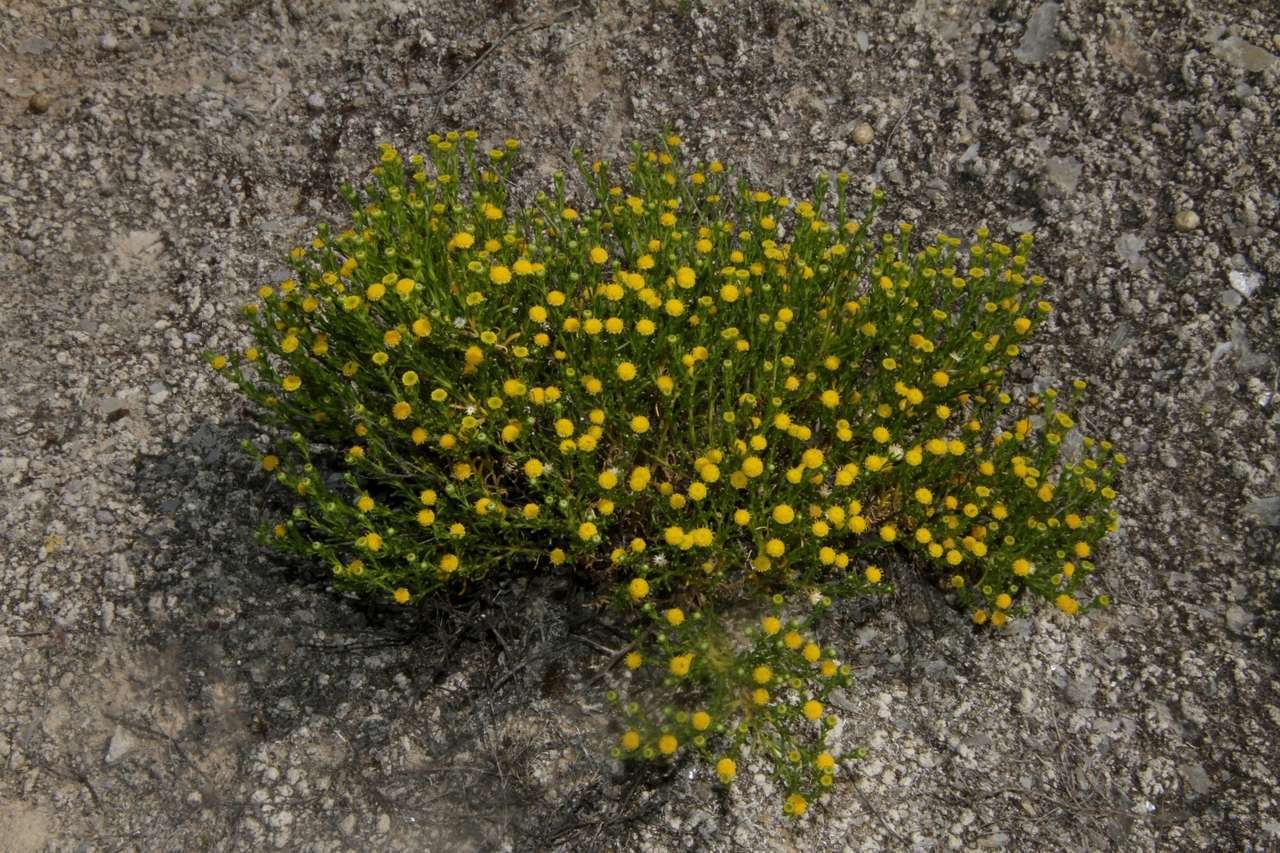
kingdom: Plantae
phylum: Tracheophyta
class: Magnoliopsida
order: Asterales
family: Asteraceae
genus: Kippistia
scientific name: Kippistia suaedifolia
